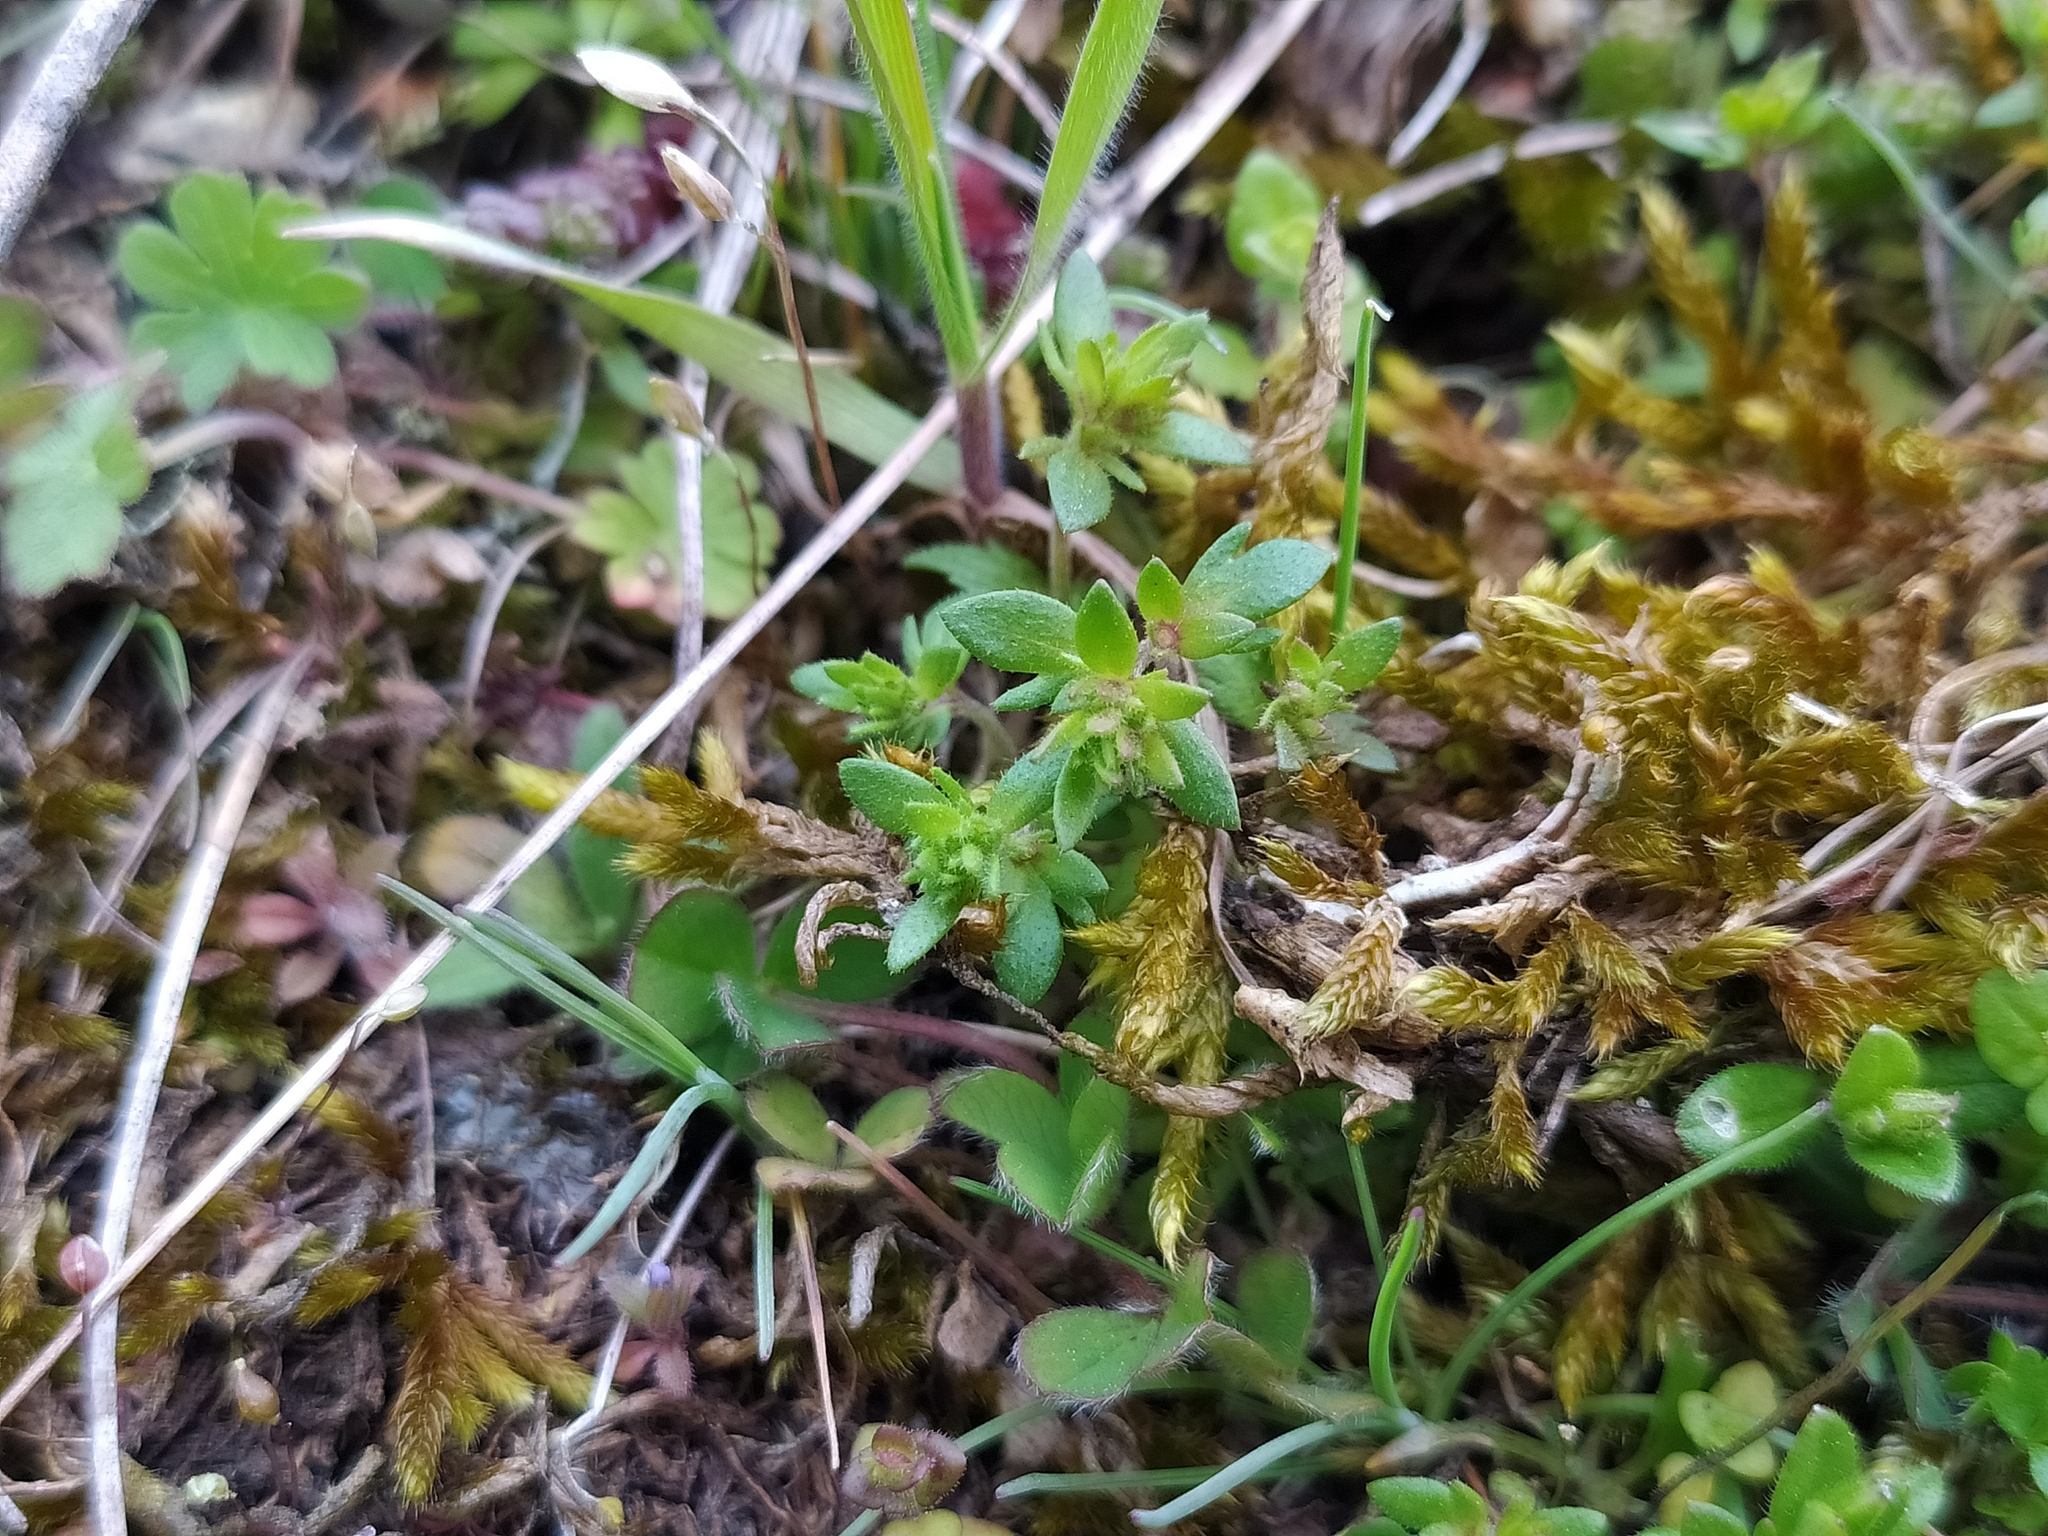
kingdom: Plantae
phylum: Tracheophyta
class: Magnoliopsida
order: Lamiales
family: Plantaginaceae
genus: Veronica
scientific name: Veronica verna
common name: Spring speedwell
